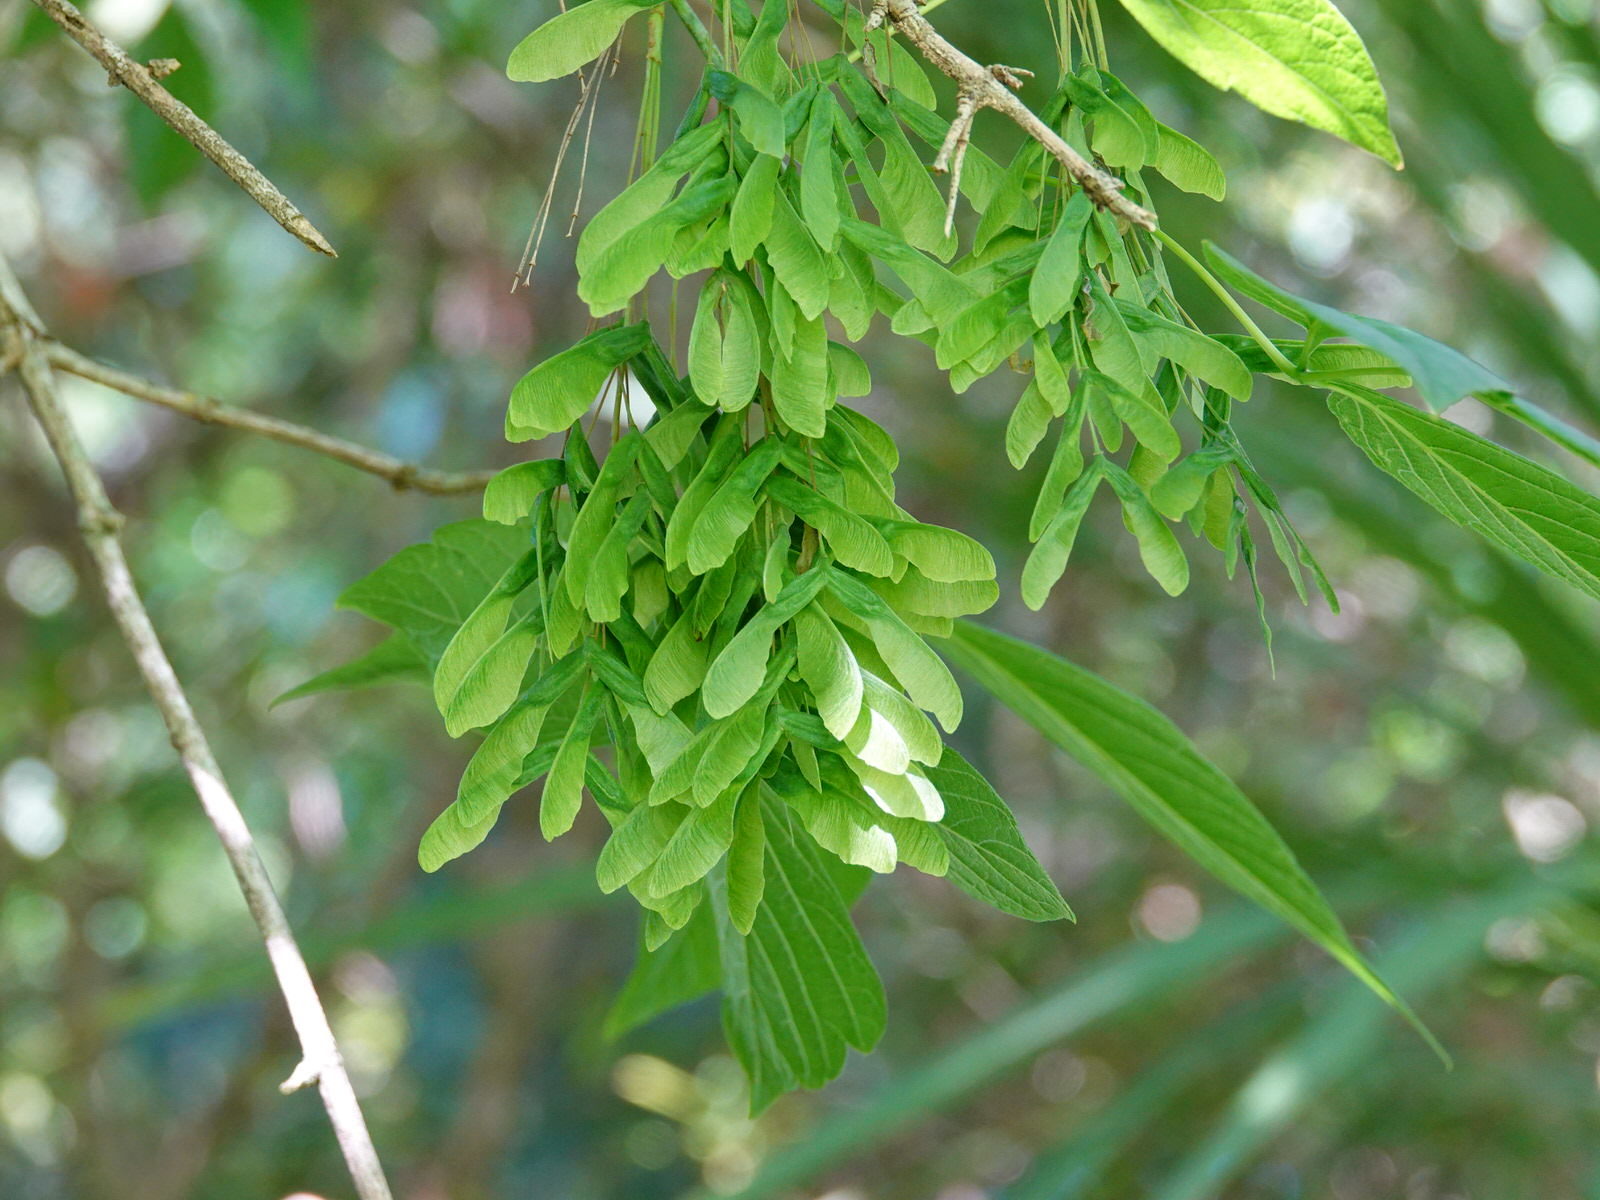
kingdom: Plantae
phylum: Tracheophyta
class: Magnoliopsida
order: Sapindales
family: Sapindaceae
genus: Acer
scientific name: Acer negundo
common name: Ashleaf maple
